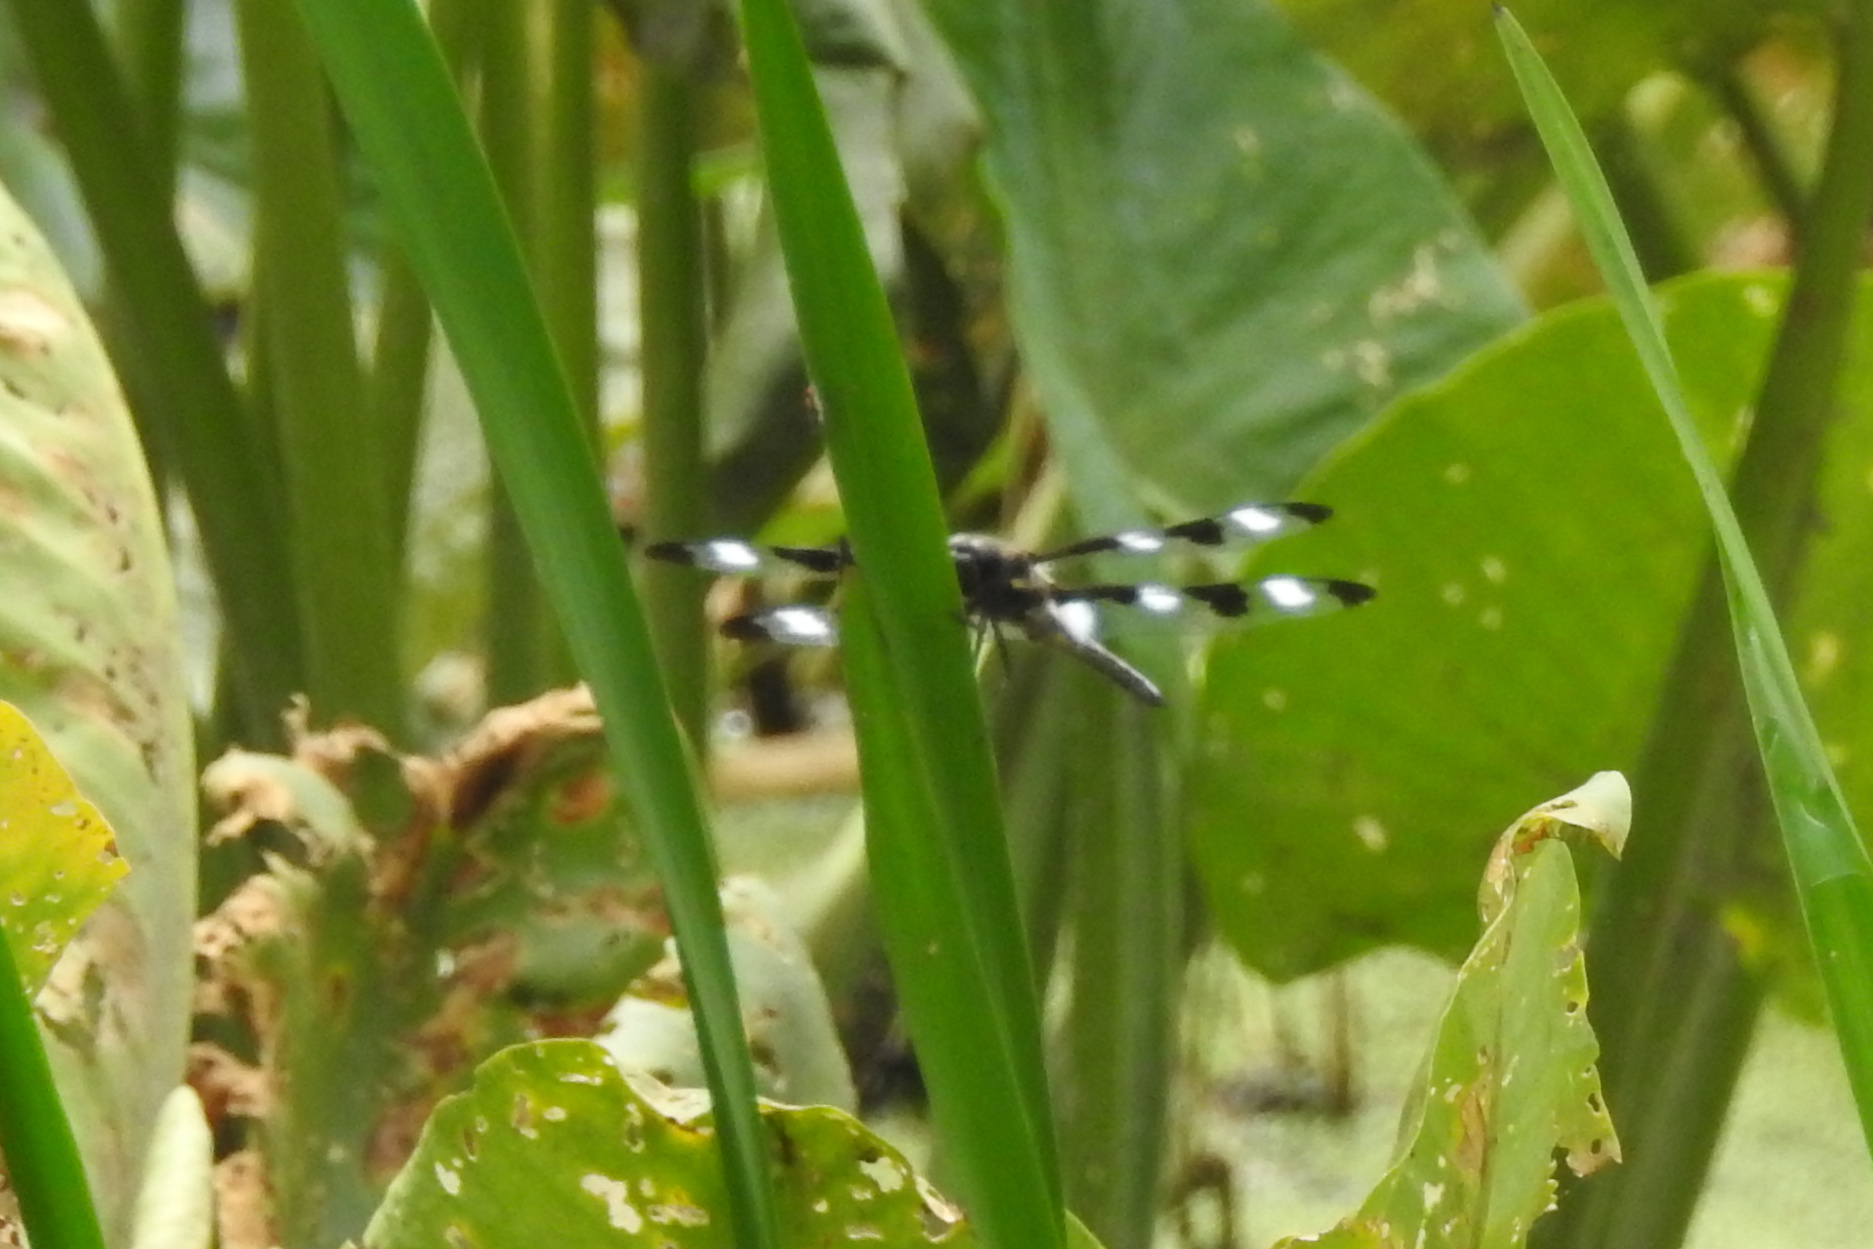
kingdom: Animalia
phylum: Arthropoda
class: Insecta
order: Odonata
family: Libellulidae
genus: Libellula
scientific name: Libellula pulchella
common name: Twelve-spotted skimmer
